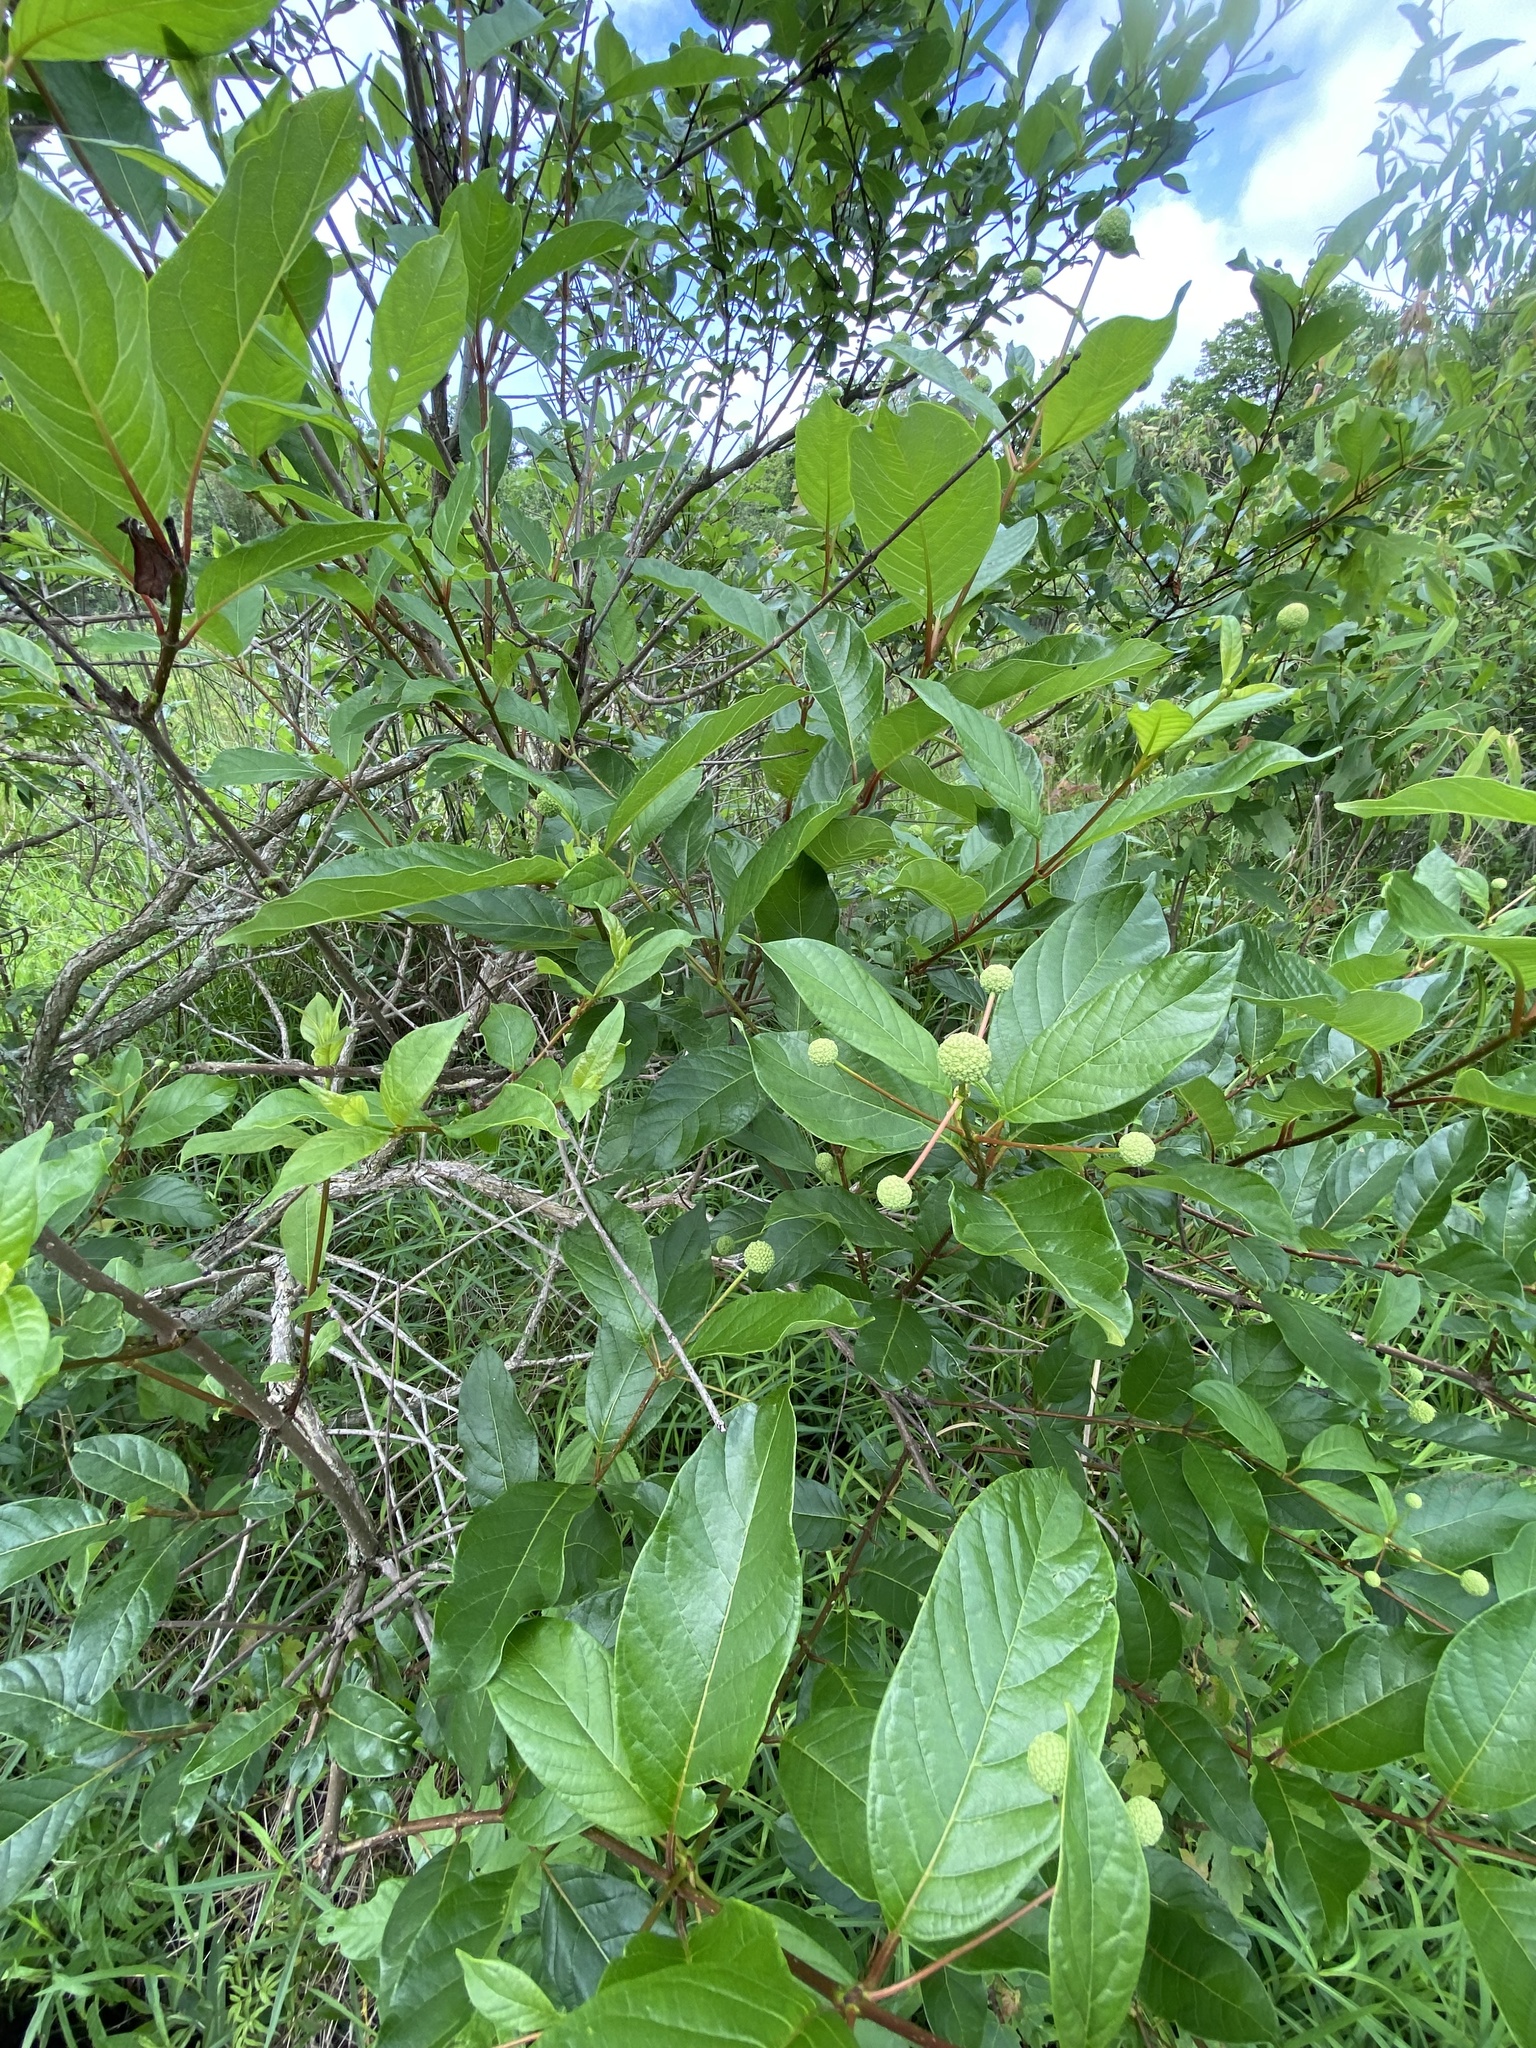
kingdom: Plantae
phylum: Tracheophyta
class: Magnoliopsida
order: Gentianales
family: Rubiaceae
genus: Cephalanthus
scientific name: Cephalanthus occidentalis
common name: Button-willow
